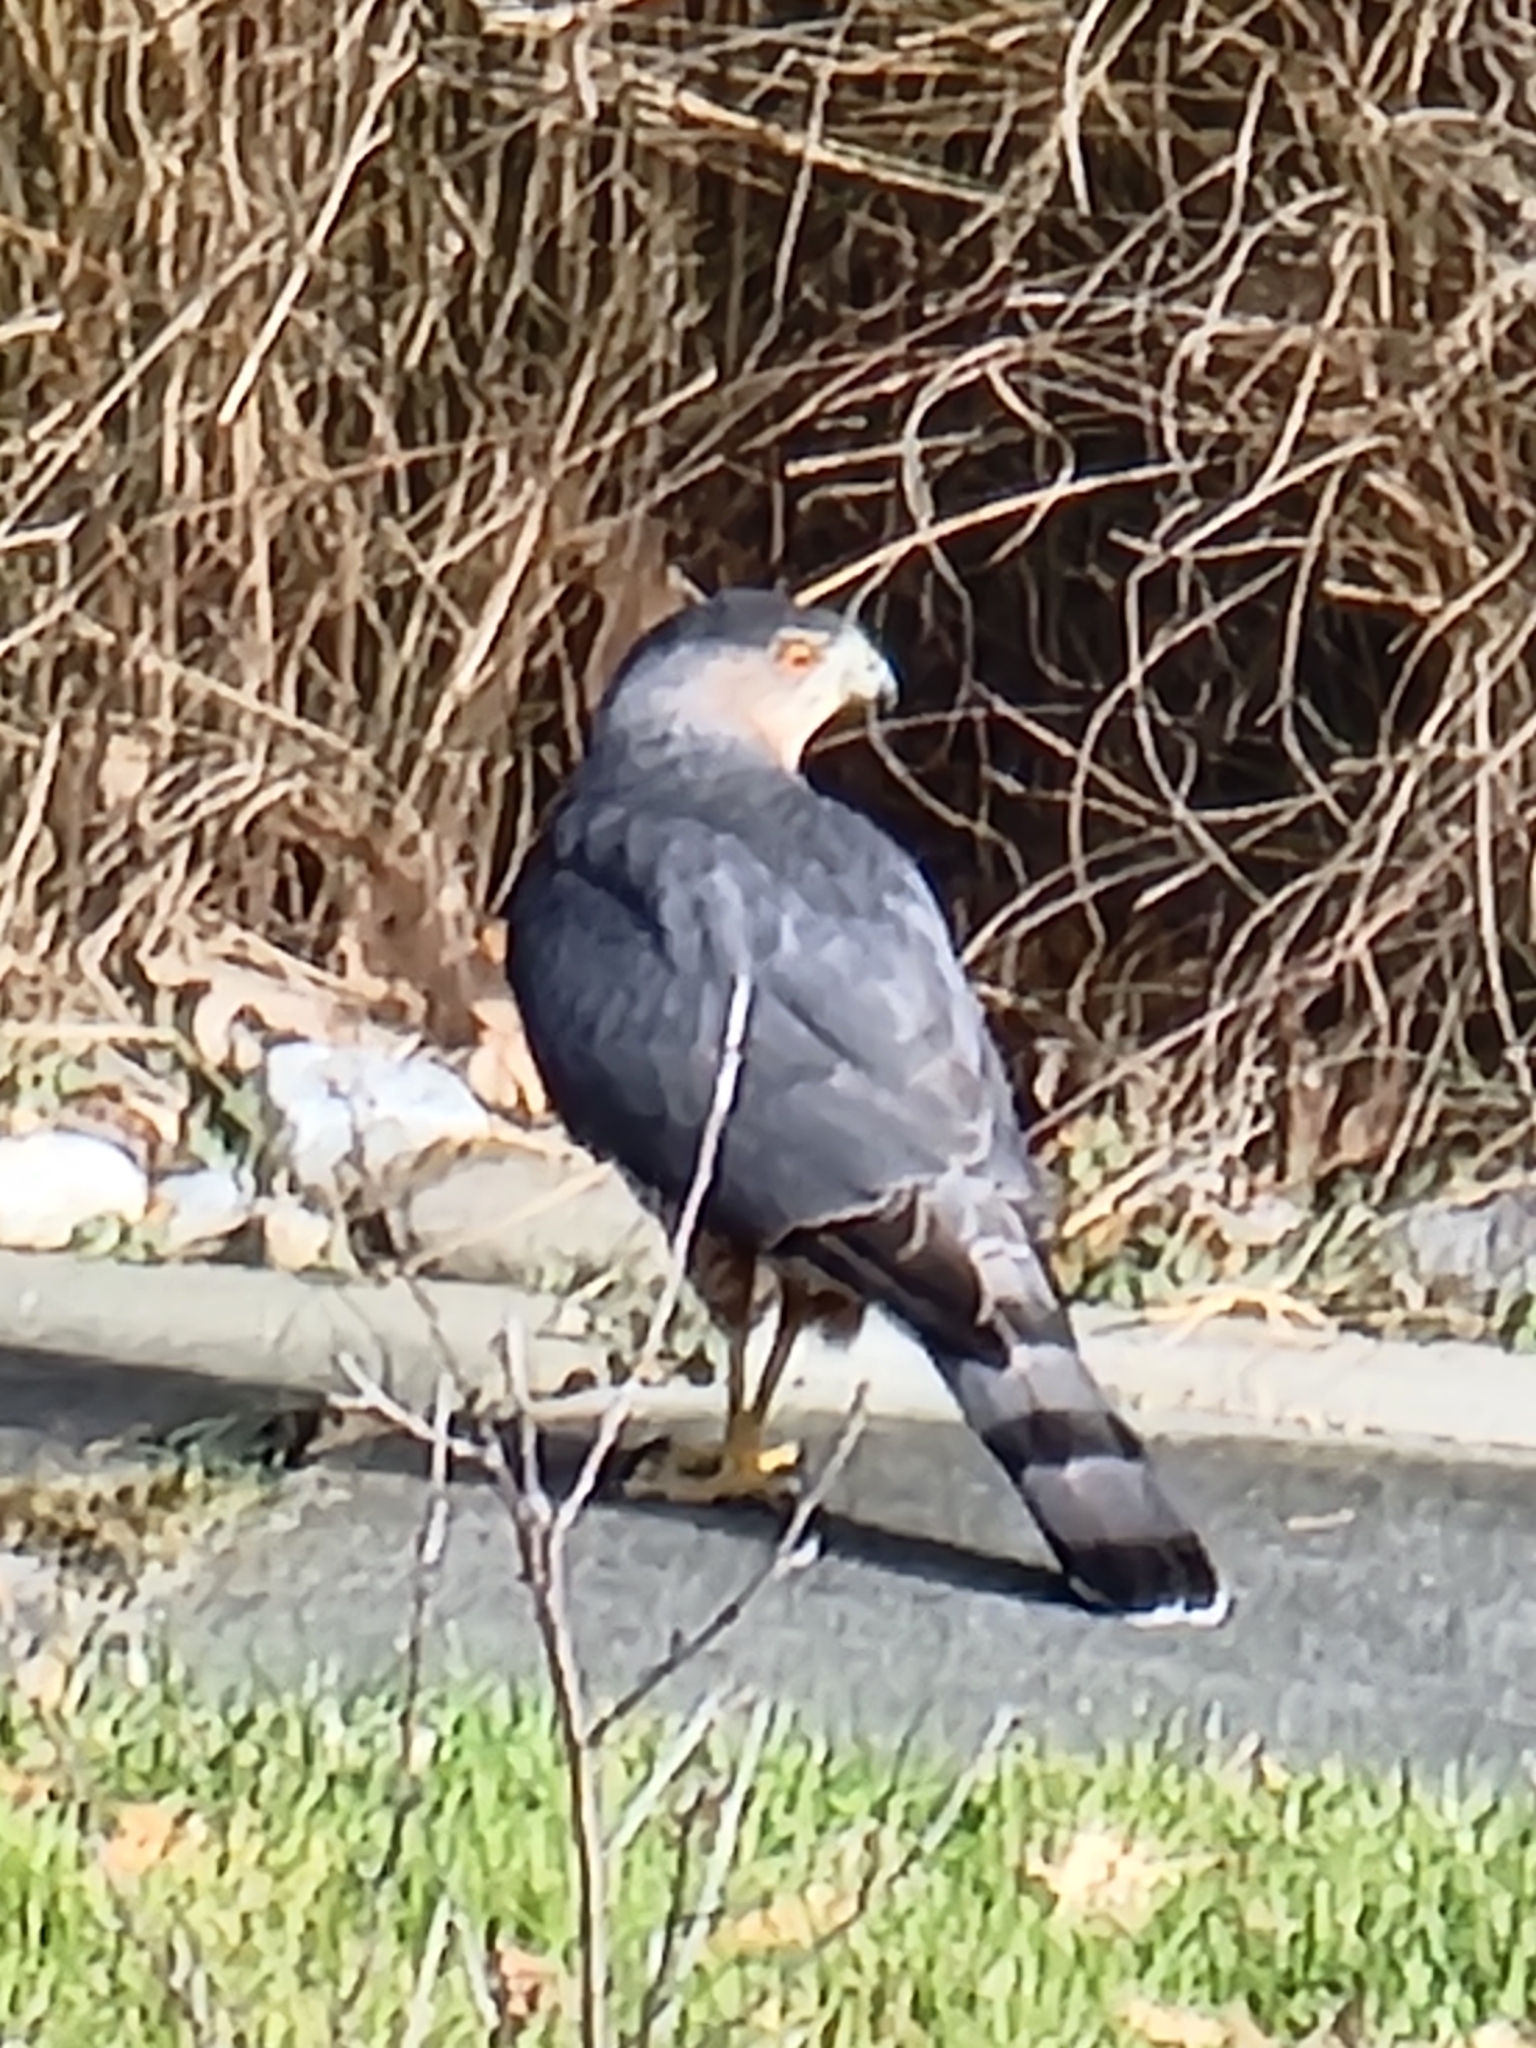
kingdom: Animalia
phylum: Chordata
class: Aves
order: Accipitriformes
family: Accipitridae
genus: Accipiter
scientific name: Accipiter cooperii
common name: Cooper's hawk
